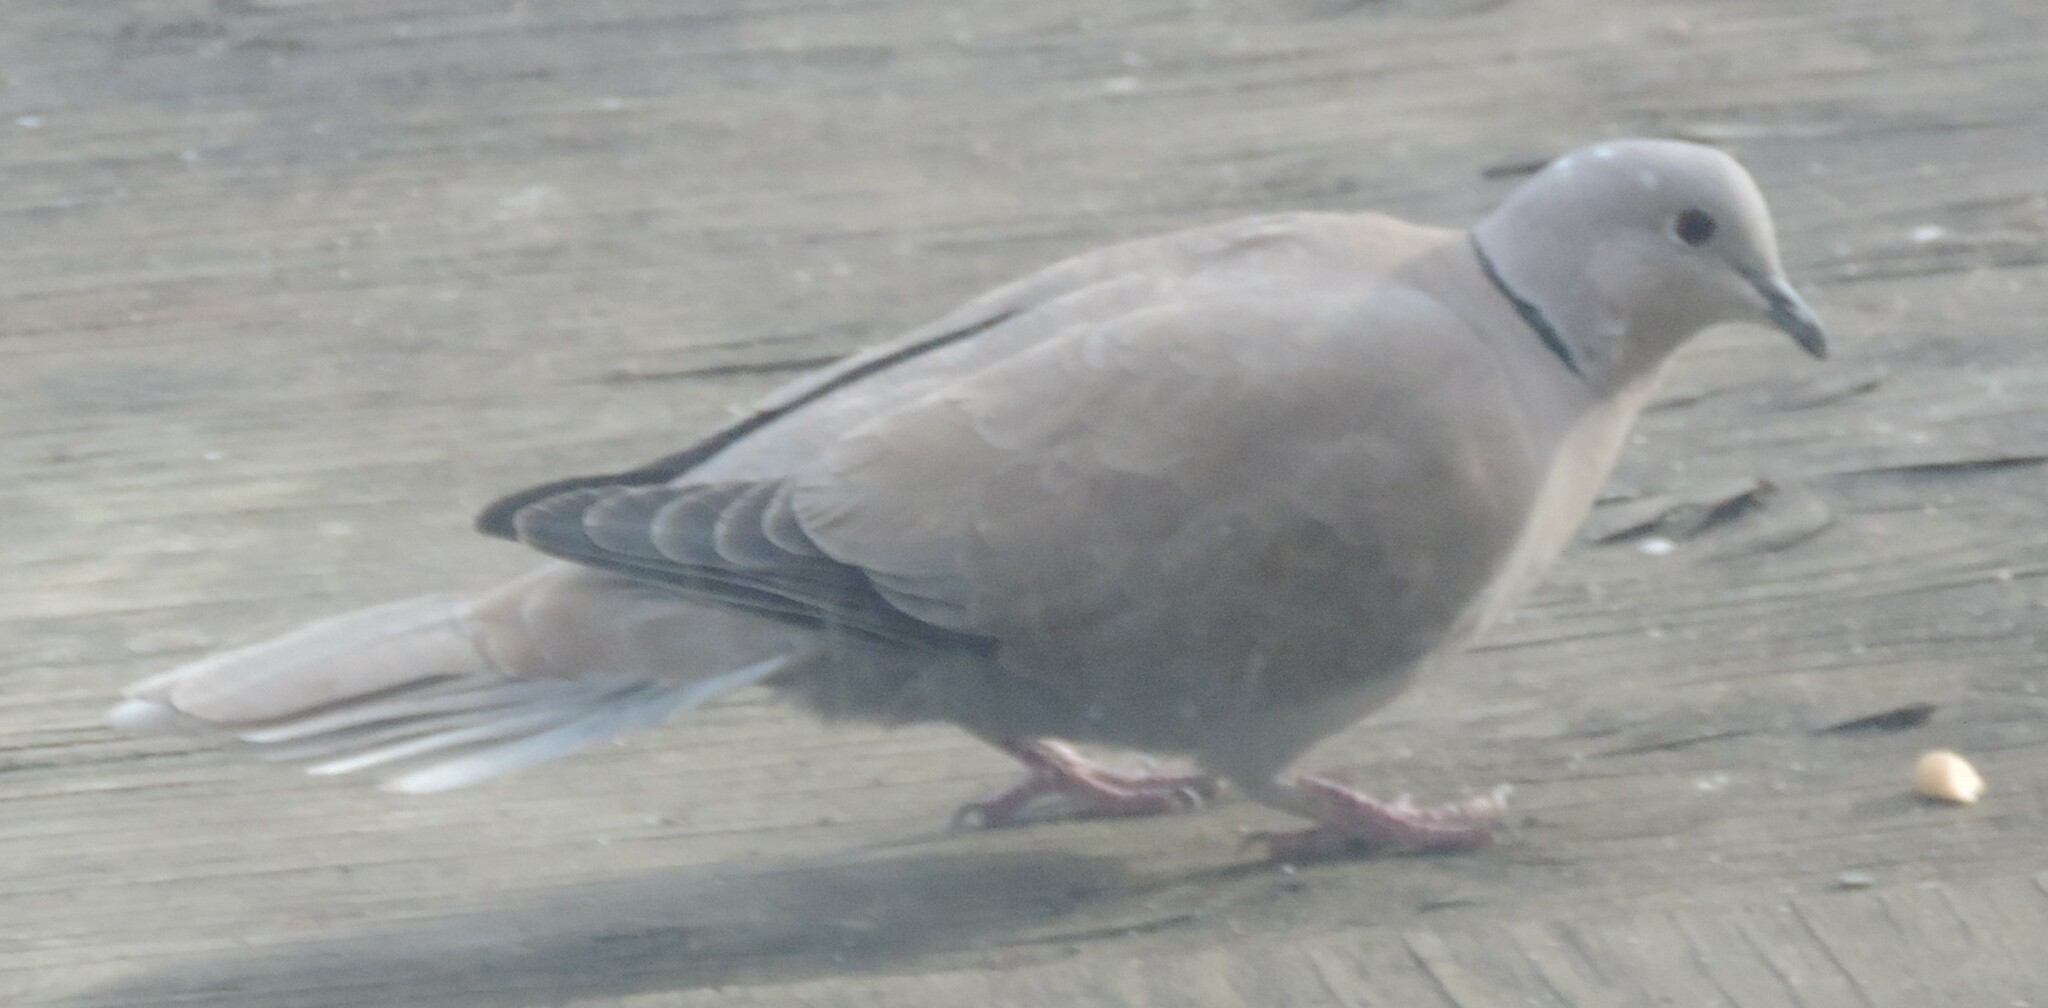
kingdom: Animalia
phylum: Chordata
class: Aves
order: Columbiformes
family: Columbidae
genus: Streptopelia
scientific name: Streptopelia decaocto
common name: Eurasian collared dove
